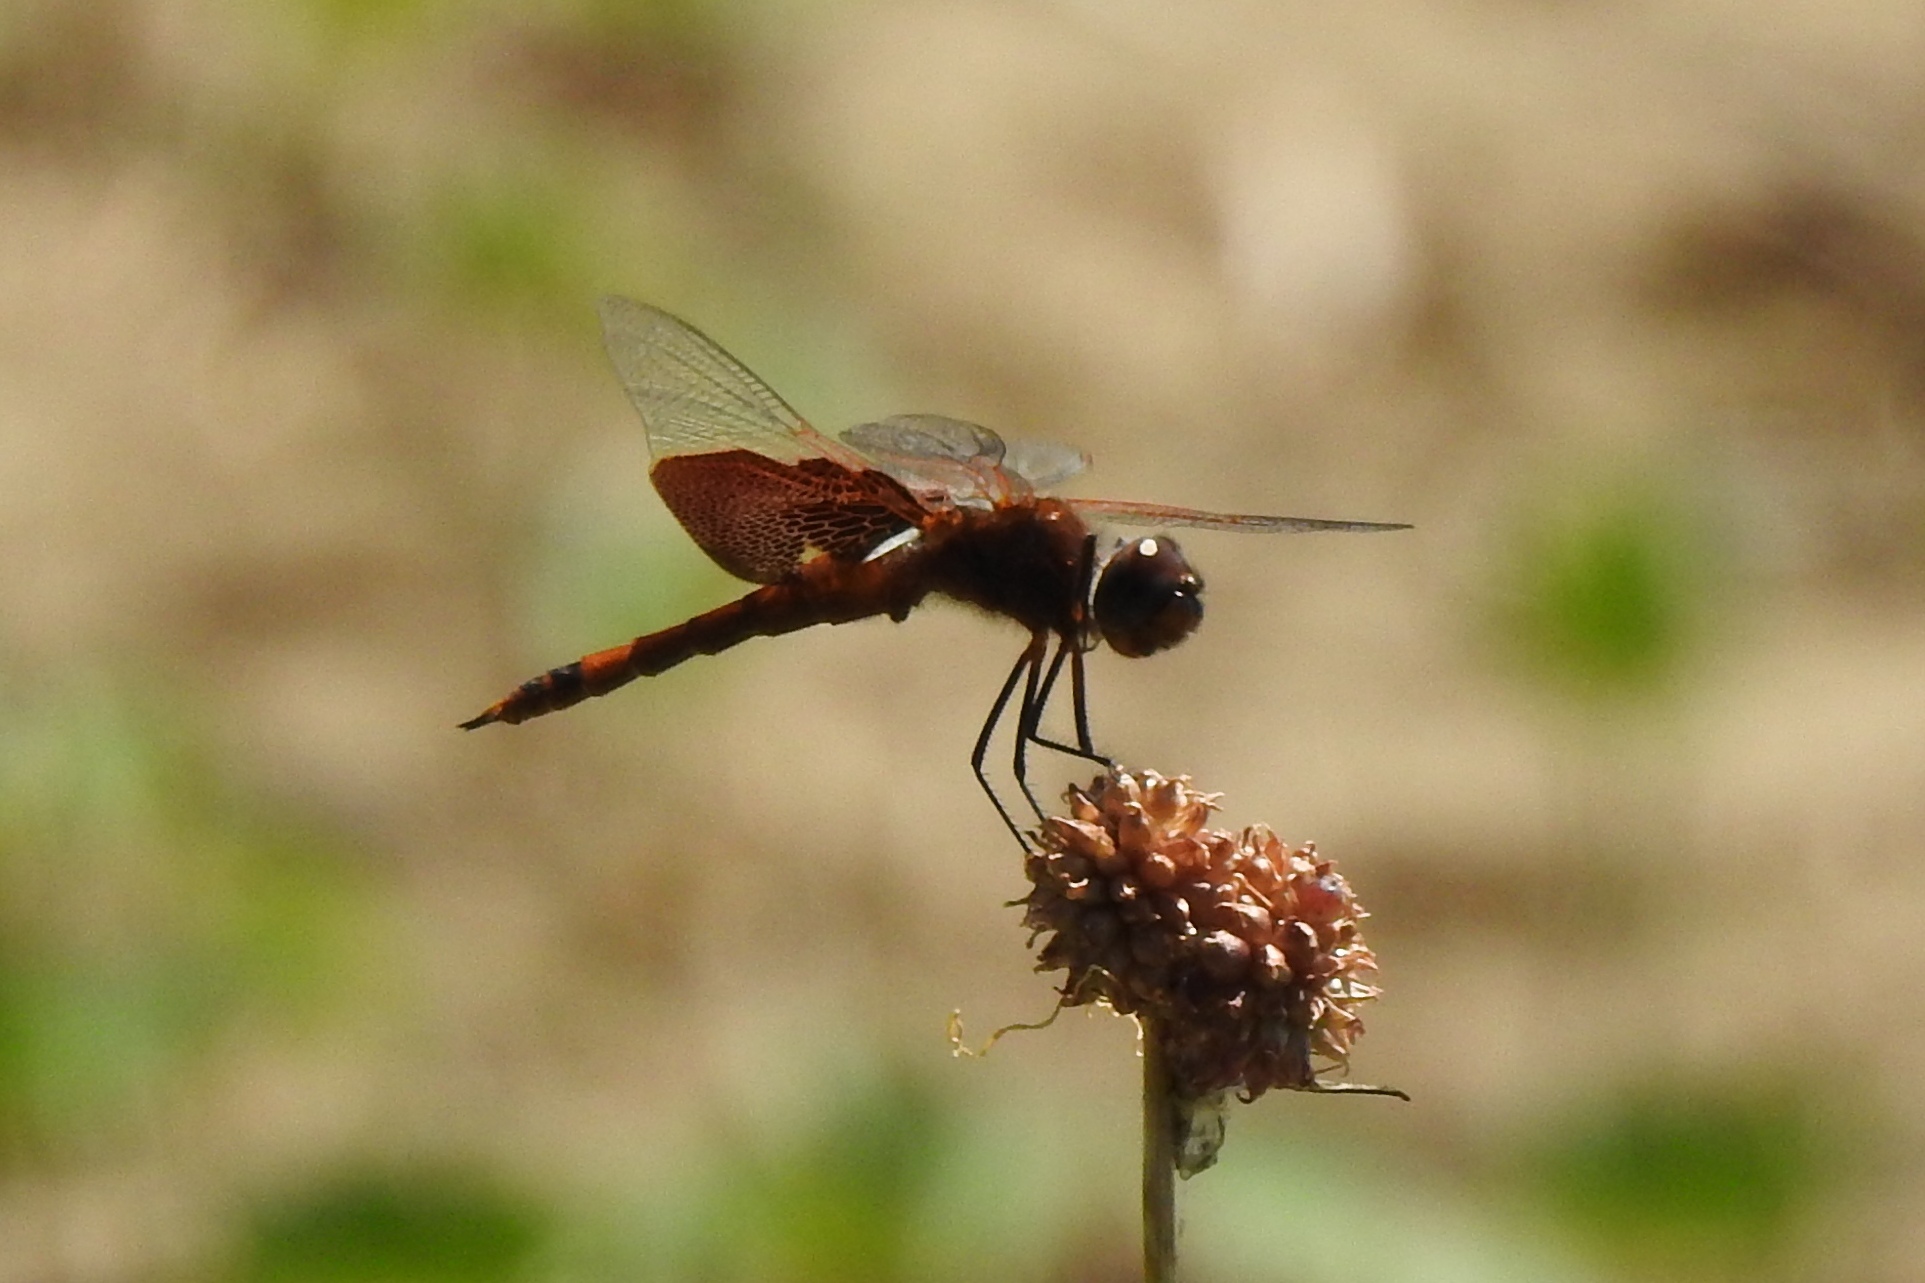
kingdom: Animalia
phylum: Arthropoda
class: Insecta
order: Odonata
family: Libellulidae
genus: Tramea
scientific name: Tramea carolina
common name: Carolina saddlebags
